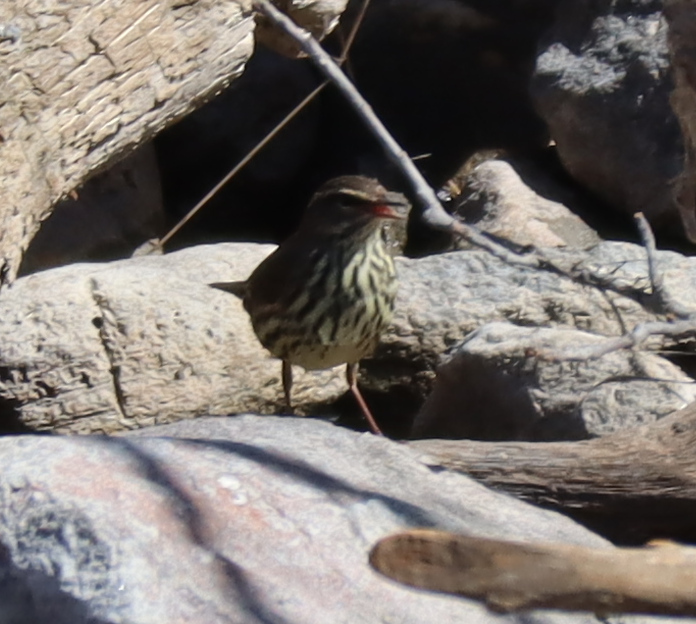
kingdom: Animalia
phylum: Chordata
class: Aves
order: Passeriformes
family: Parulidae
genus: Parkesia
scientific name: Parkesia noveboracensis
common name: Northern waterthrush
